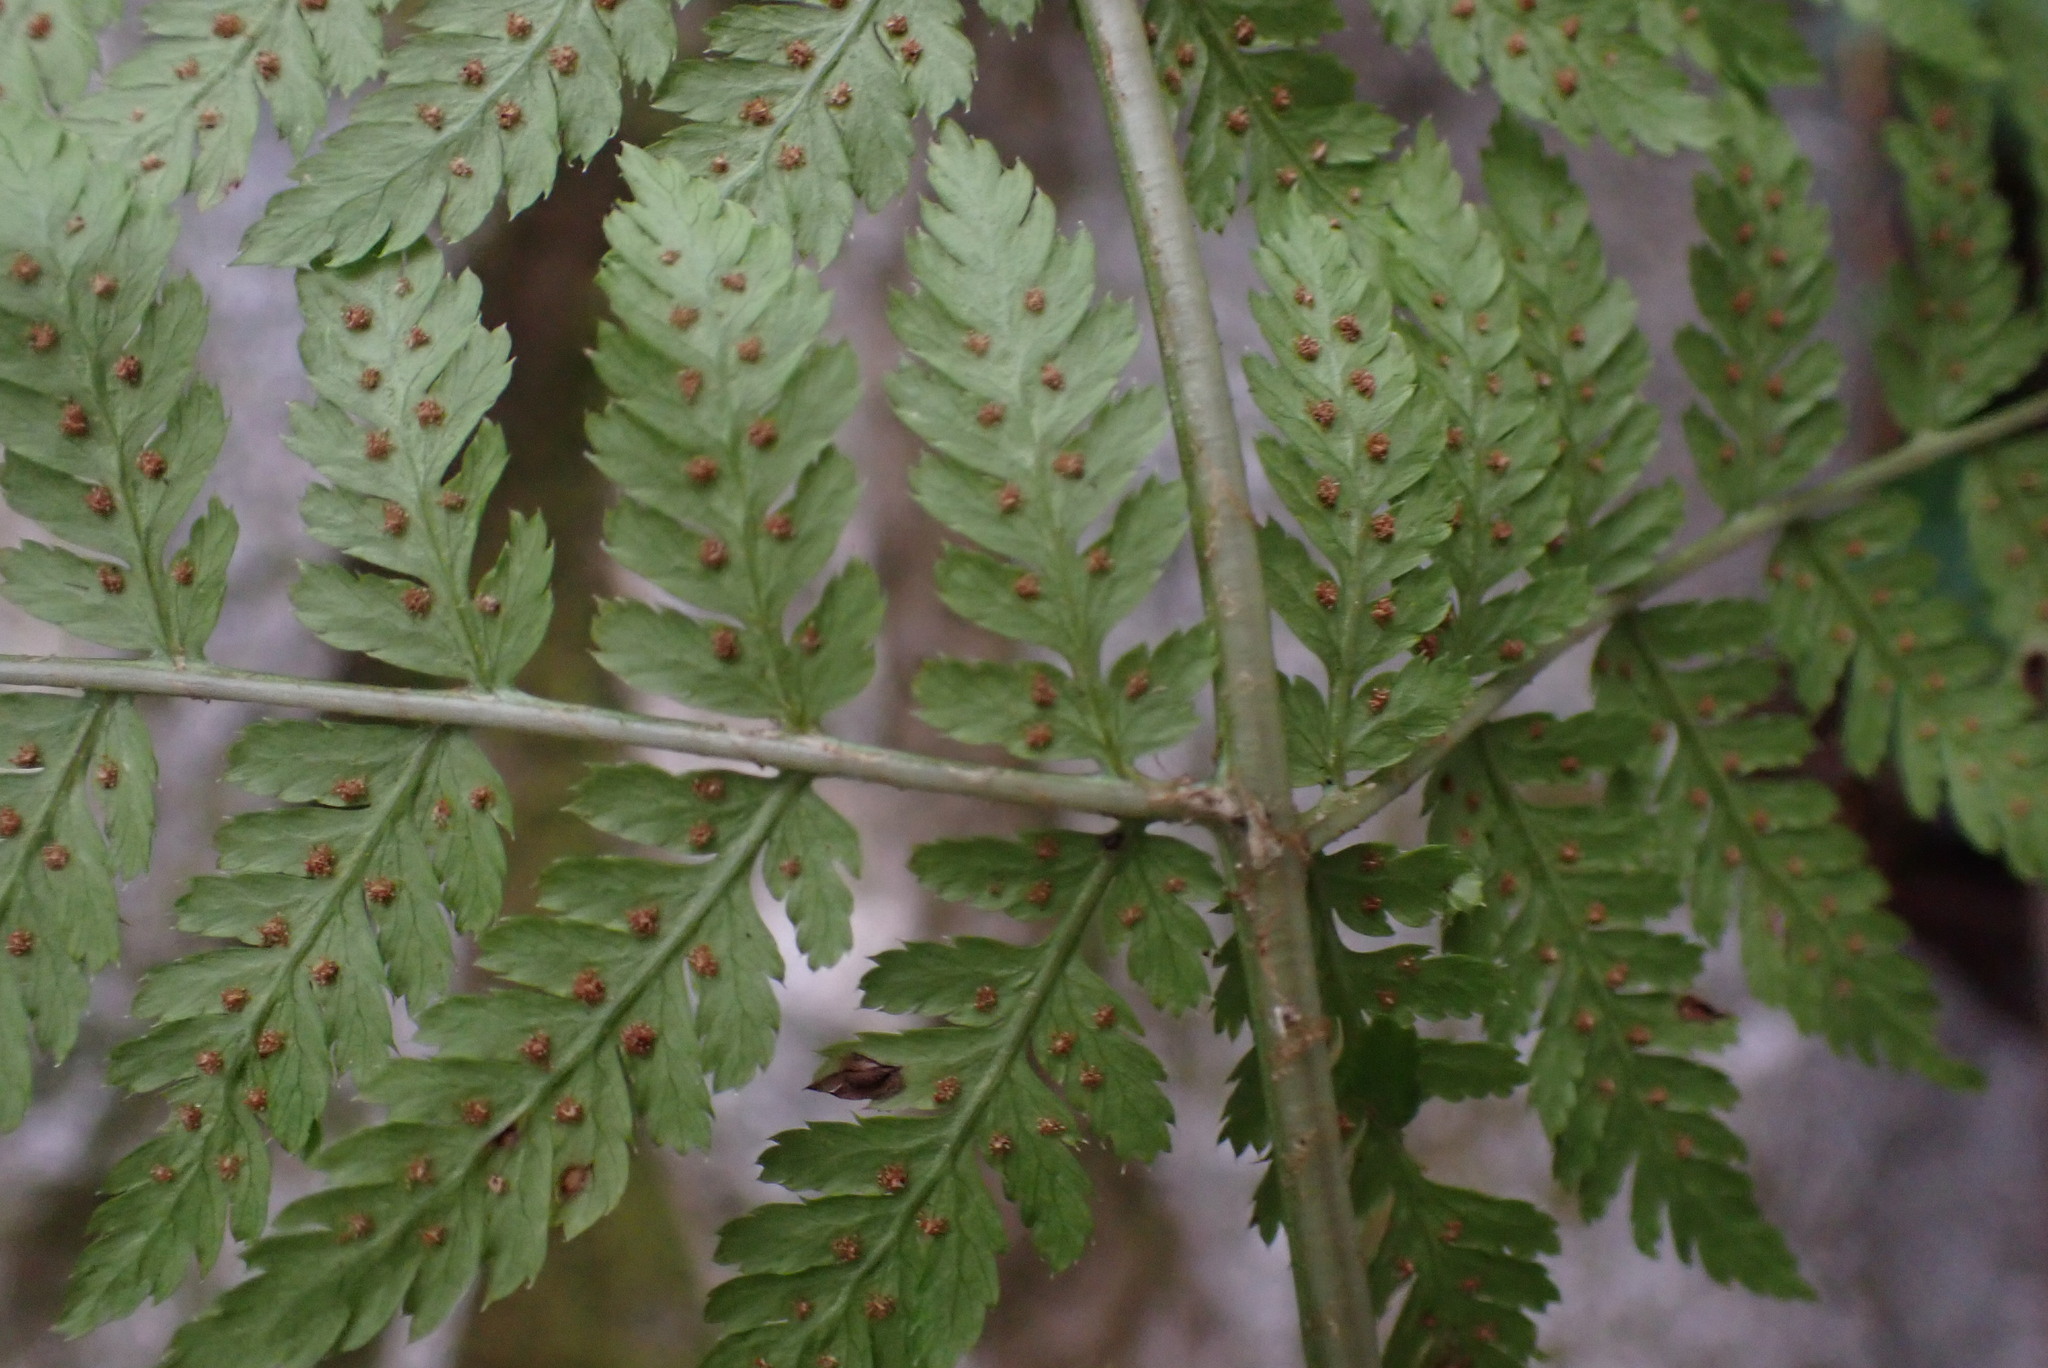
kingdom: Plantae
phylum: Tracheophyta
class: Polypodiopsida
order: Polypodiales
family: Dryopteridaceae
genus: Dryopteris
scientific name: Dryopteris expansa
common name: Northern buckler fern
